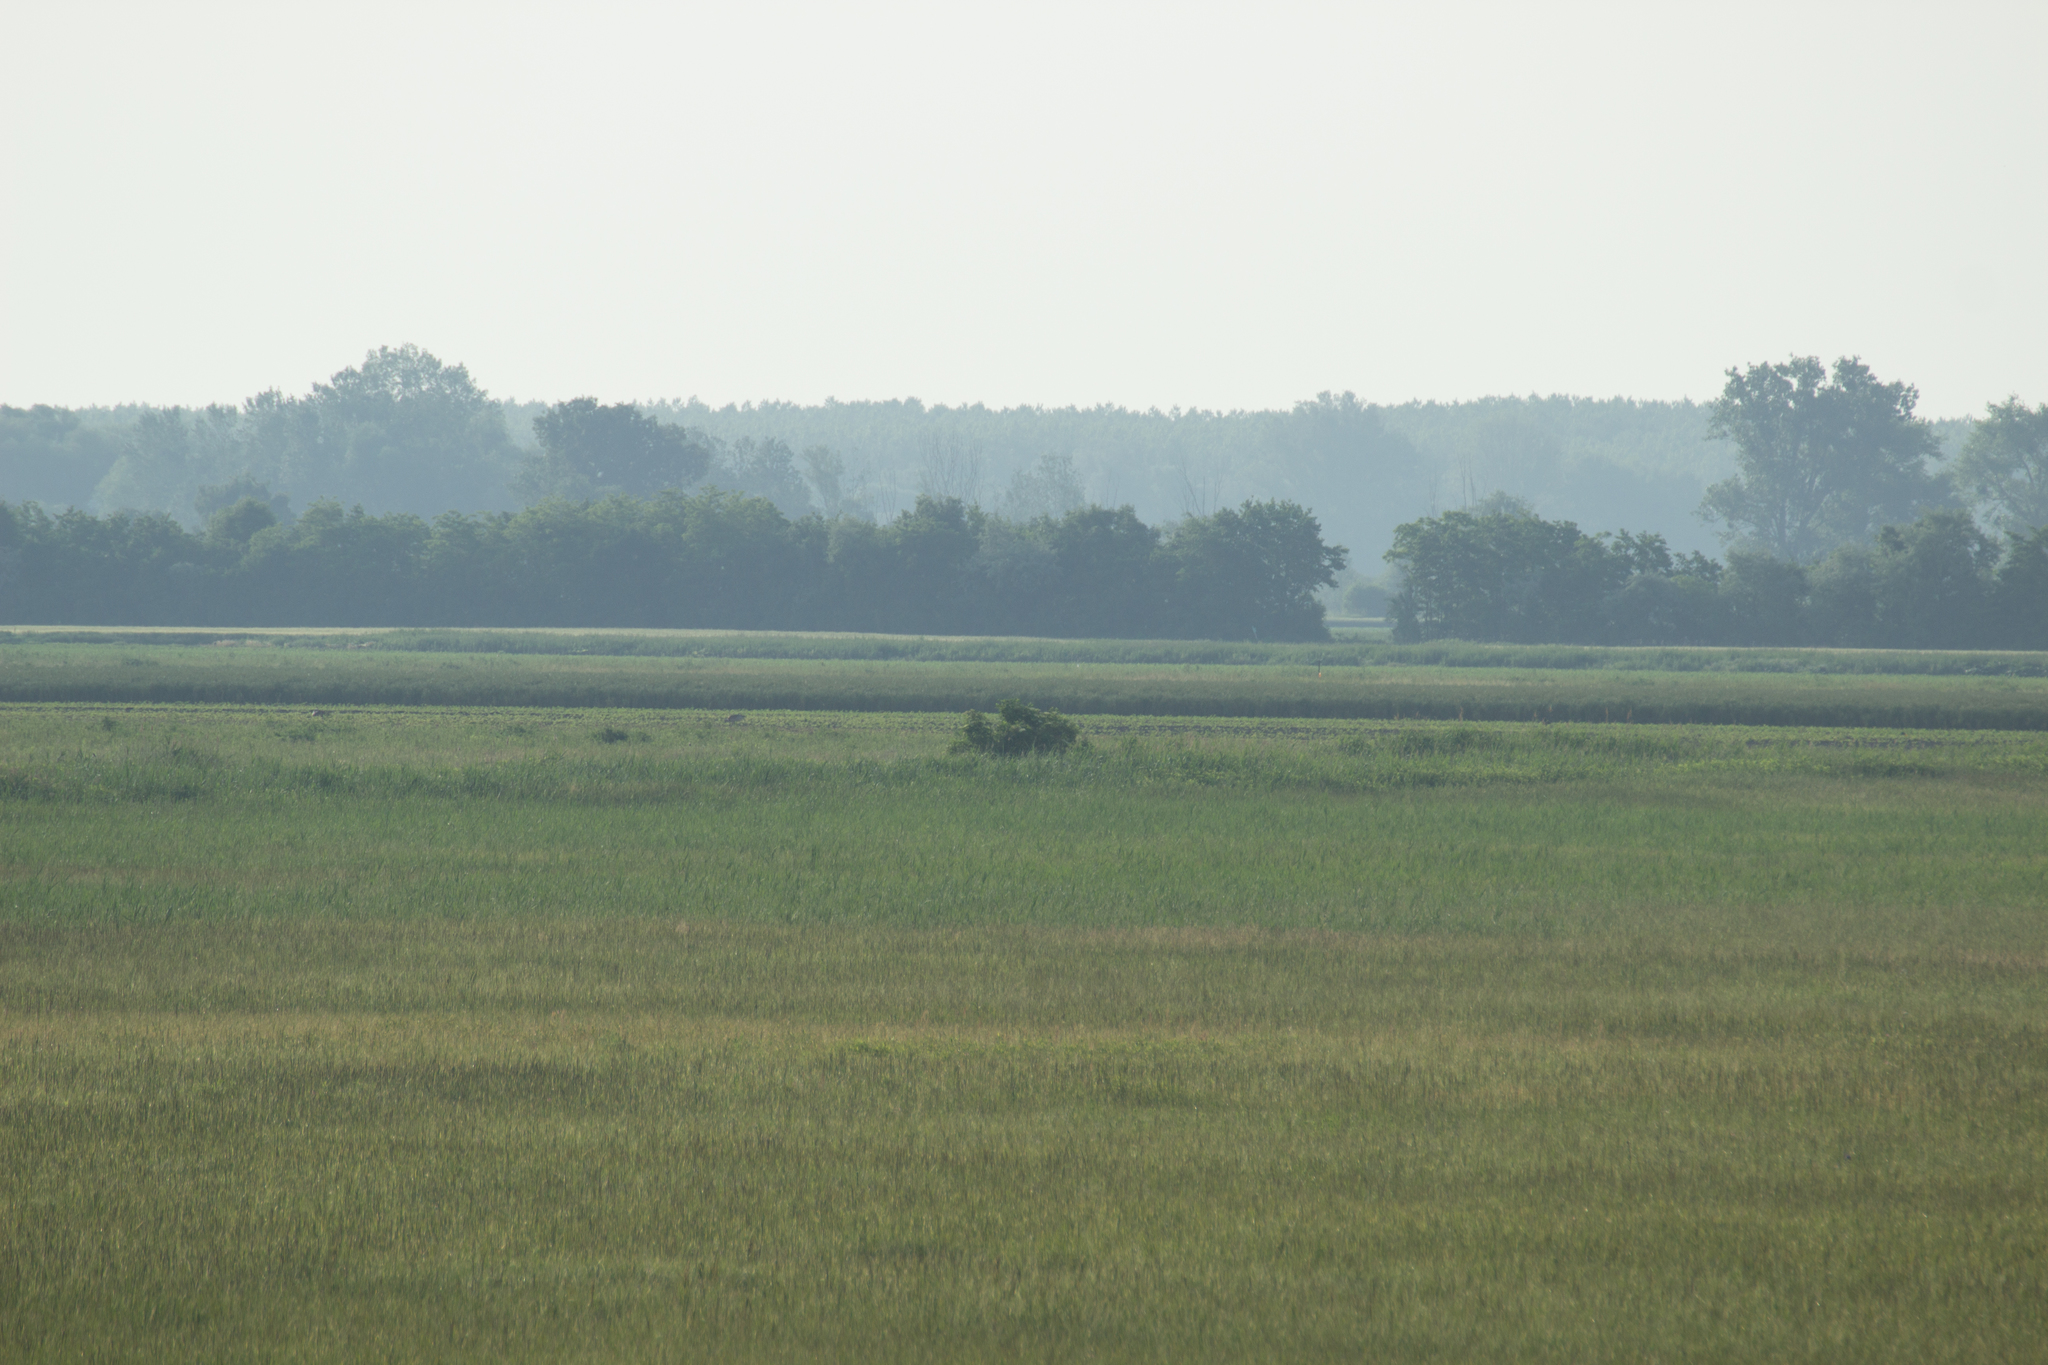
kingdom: Animalia
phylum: Chordata
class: Aves
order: Otidiformes
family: Otididae
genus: Otis
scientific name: Otis tarda
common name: Great bustard
